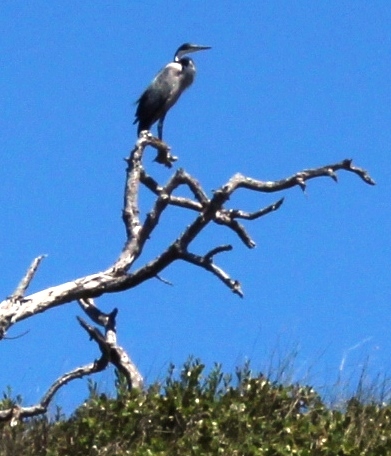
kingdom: Animalia
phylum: Chordata
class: Aves
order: Pelecaniformes
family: Ardeidae
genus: Ardea
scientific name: Ardea melanocephala
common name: Black-headed heron
